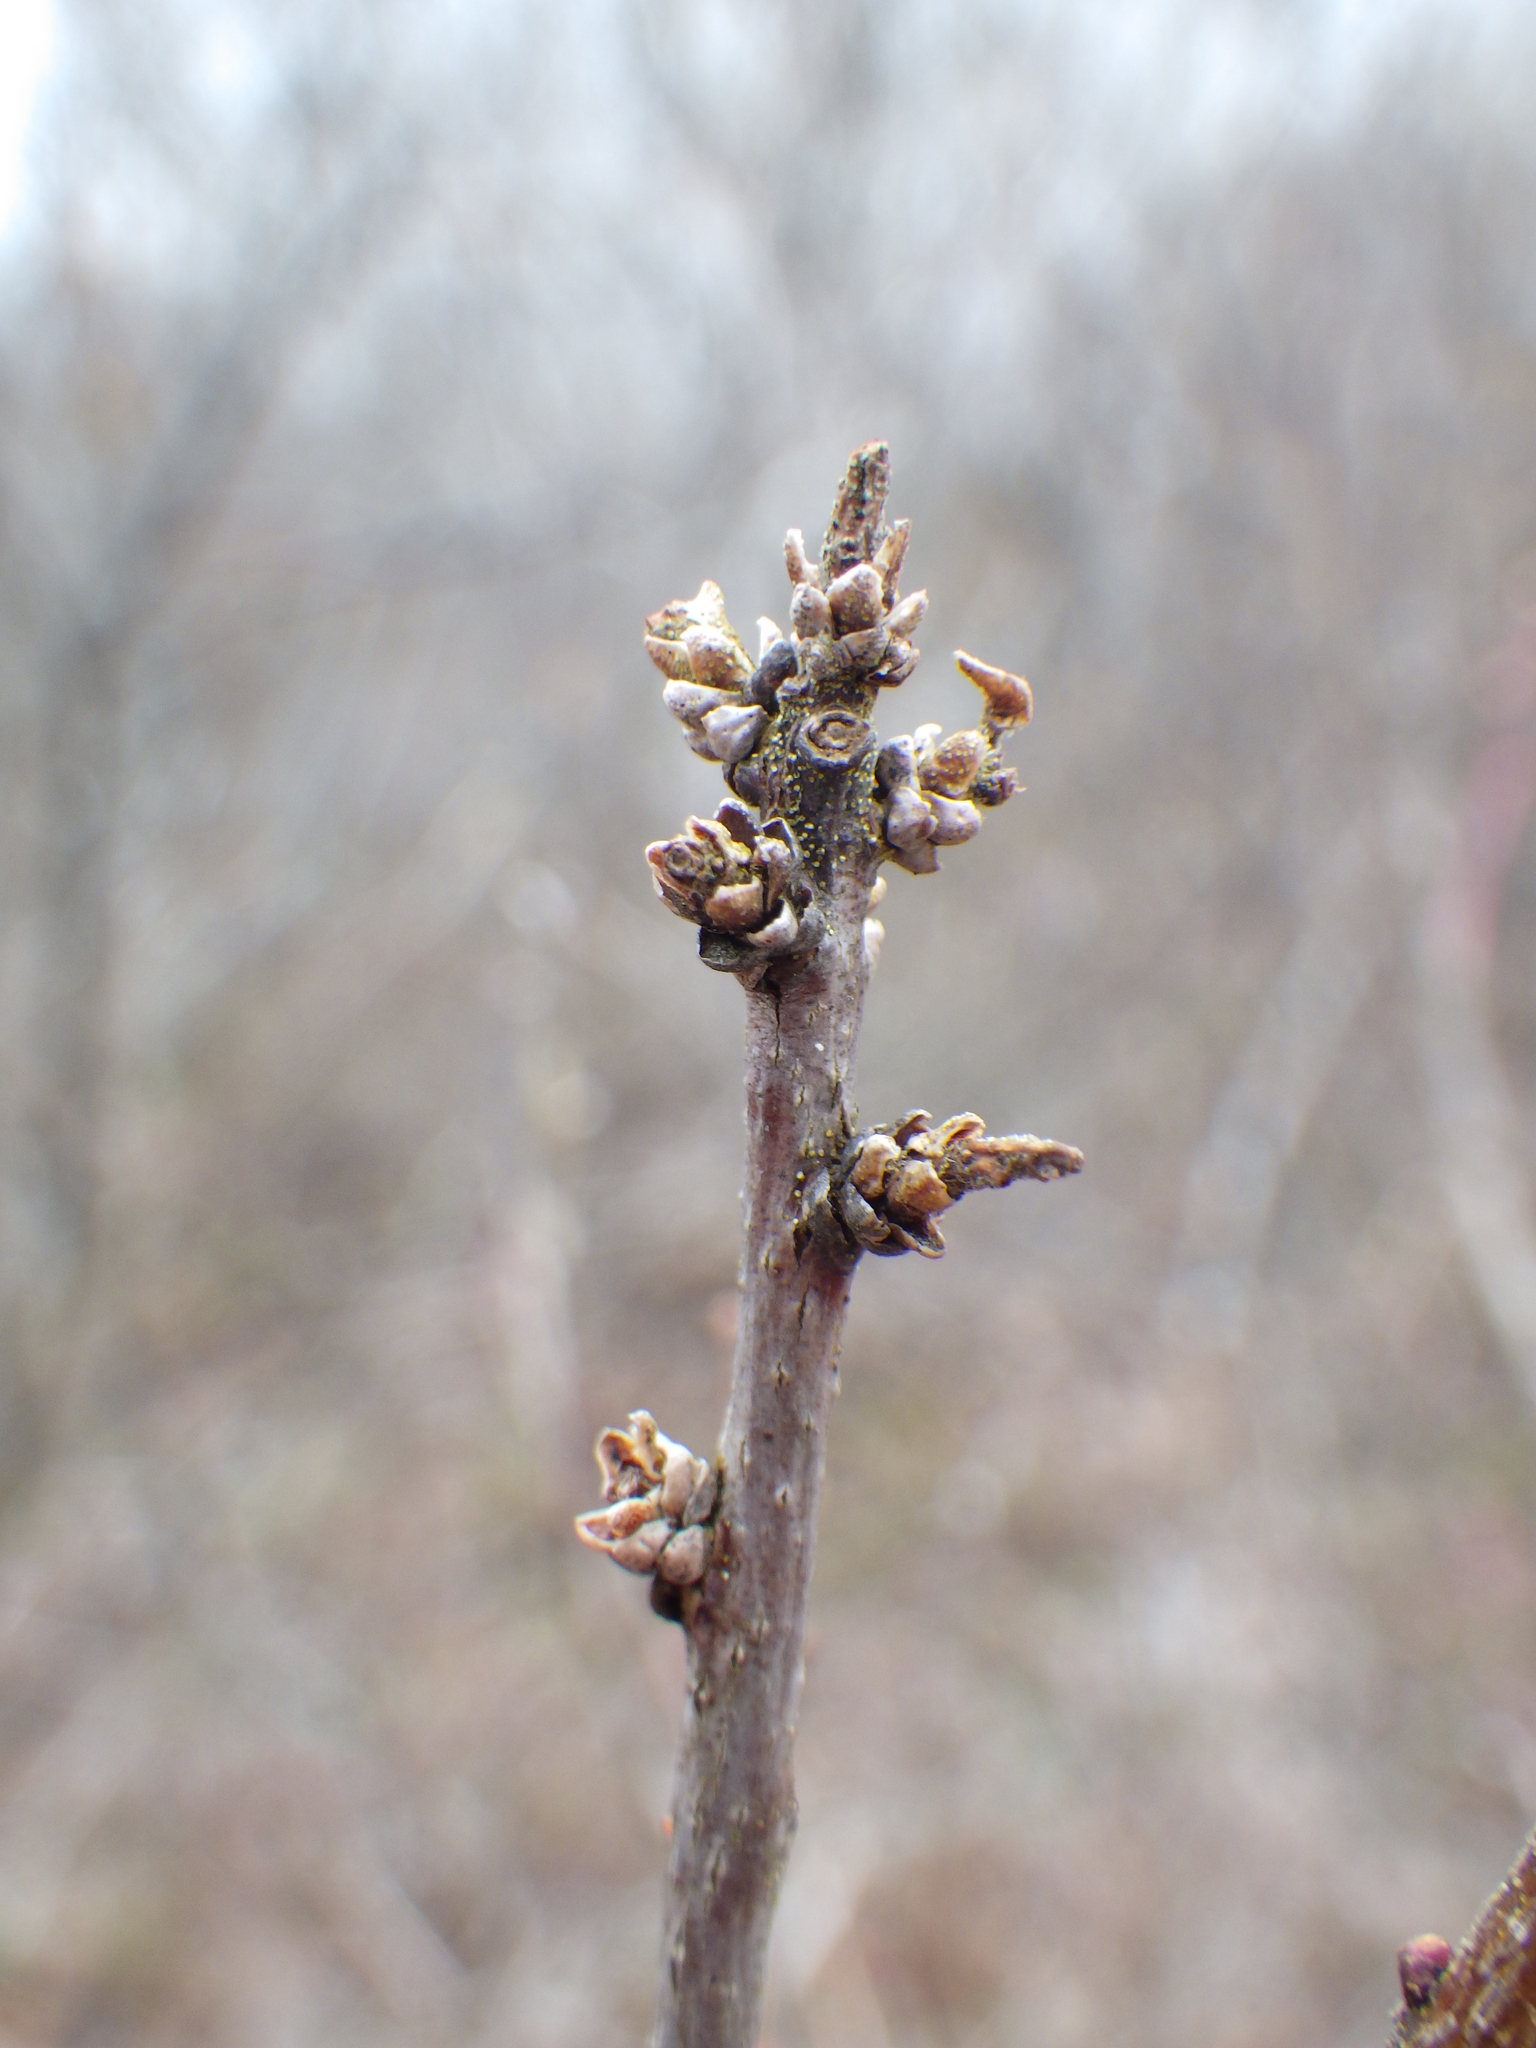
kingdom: Plantae
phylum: Tracheophyta
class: Magnoliopsida
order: Fagales
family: Myricaceae
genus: Morella
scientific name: Morella pensylvanica
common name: Northern bayberry
